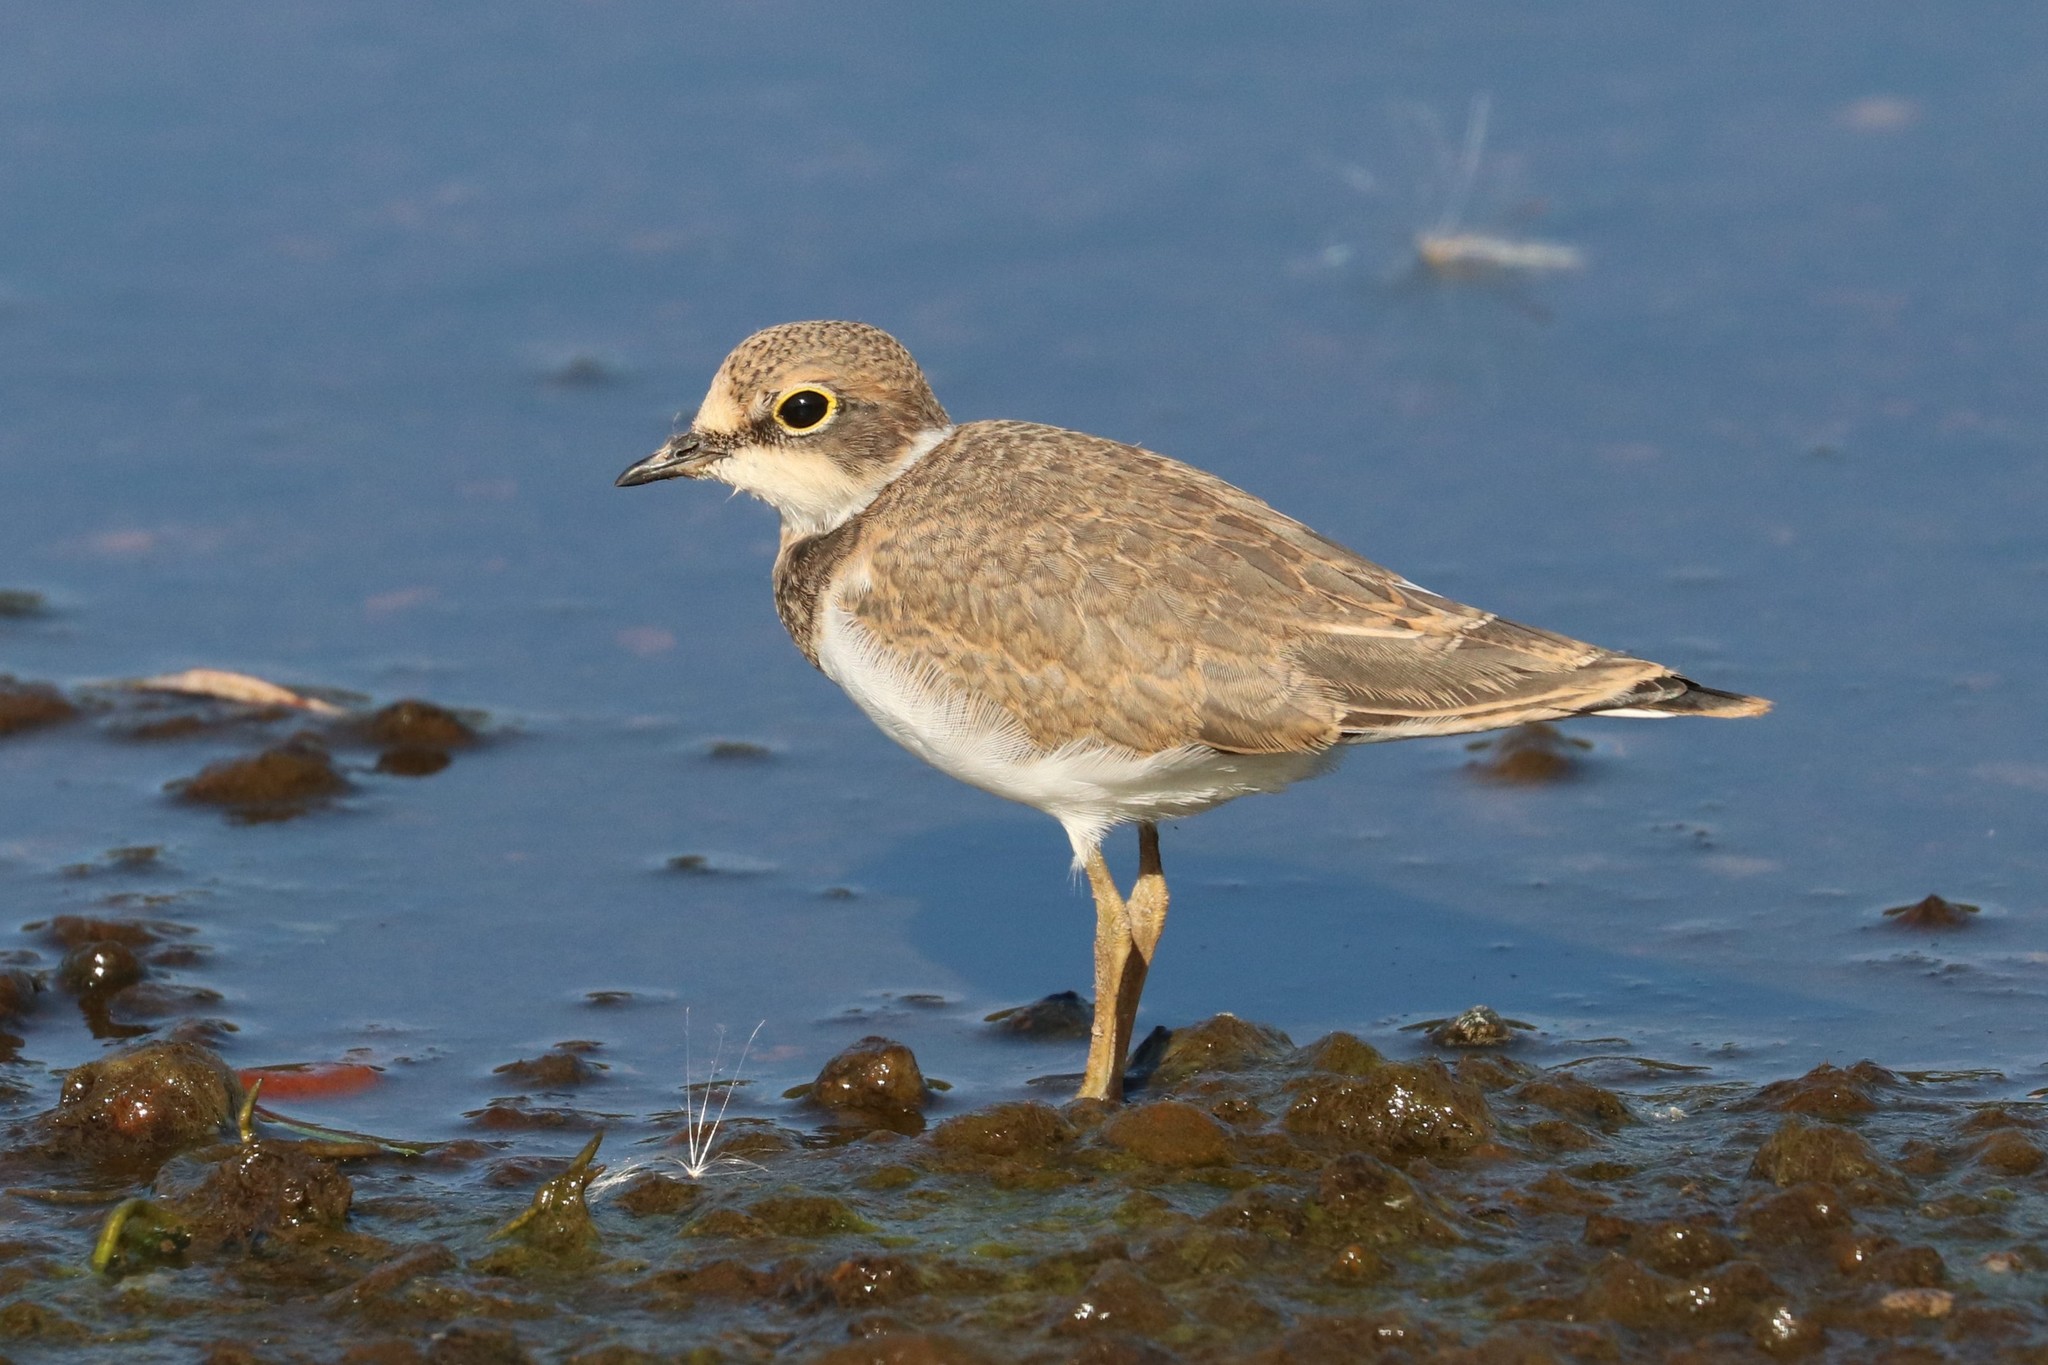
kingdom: Animalia
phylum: Chordata
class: Aves
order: Charadriiformes
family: Charadriidae
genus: Charadrius
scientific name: Charadrius dubius
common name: Little ringed plover
